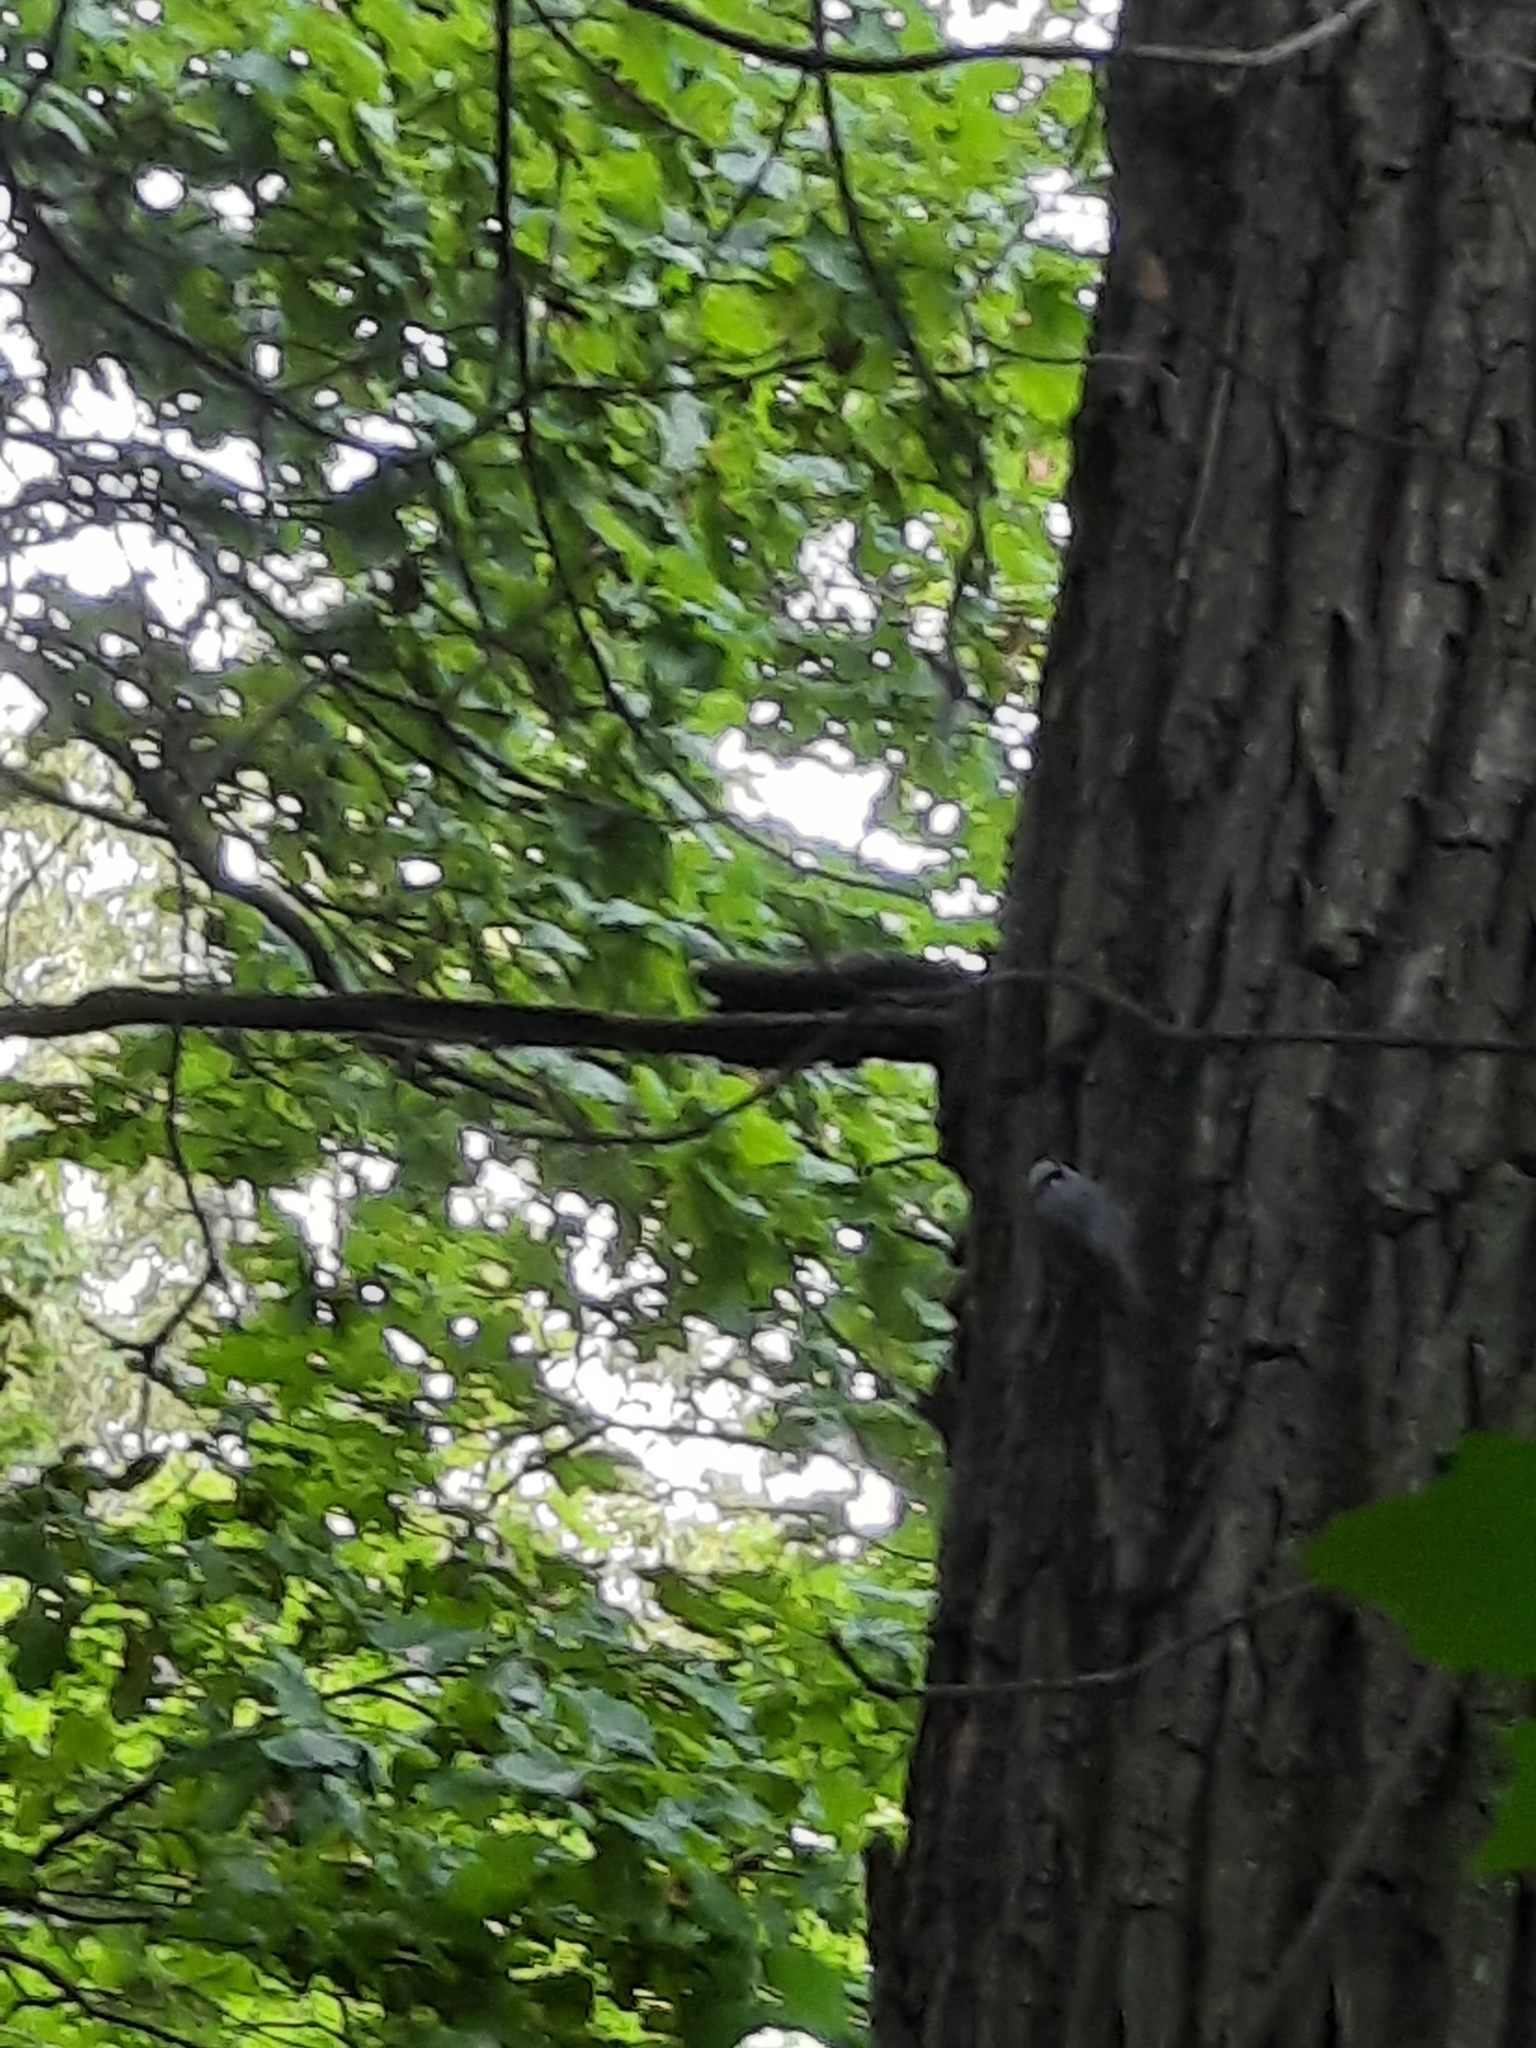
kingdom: Animalia
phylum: Chordata
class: Aves
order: Passeriformes
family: Sittidae
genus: Sitta
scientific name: Sitta europaea
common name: Eurasian nuthatch
